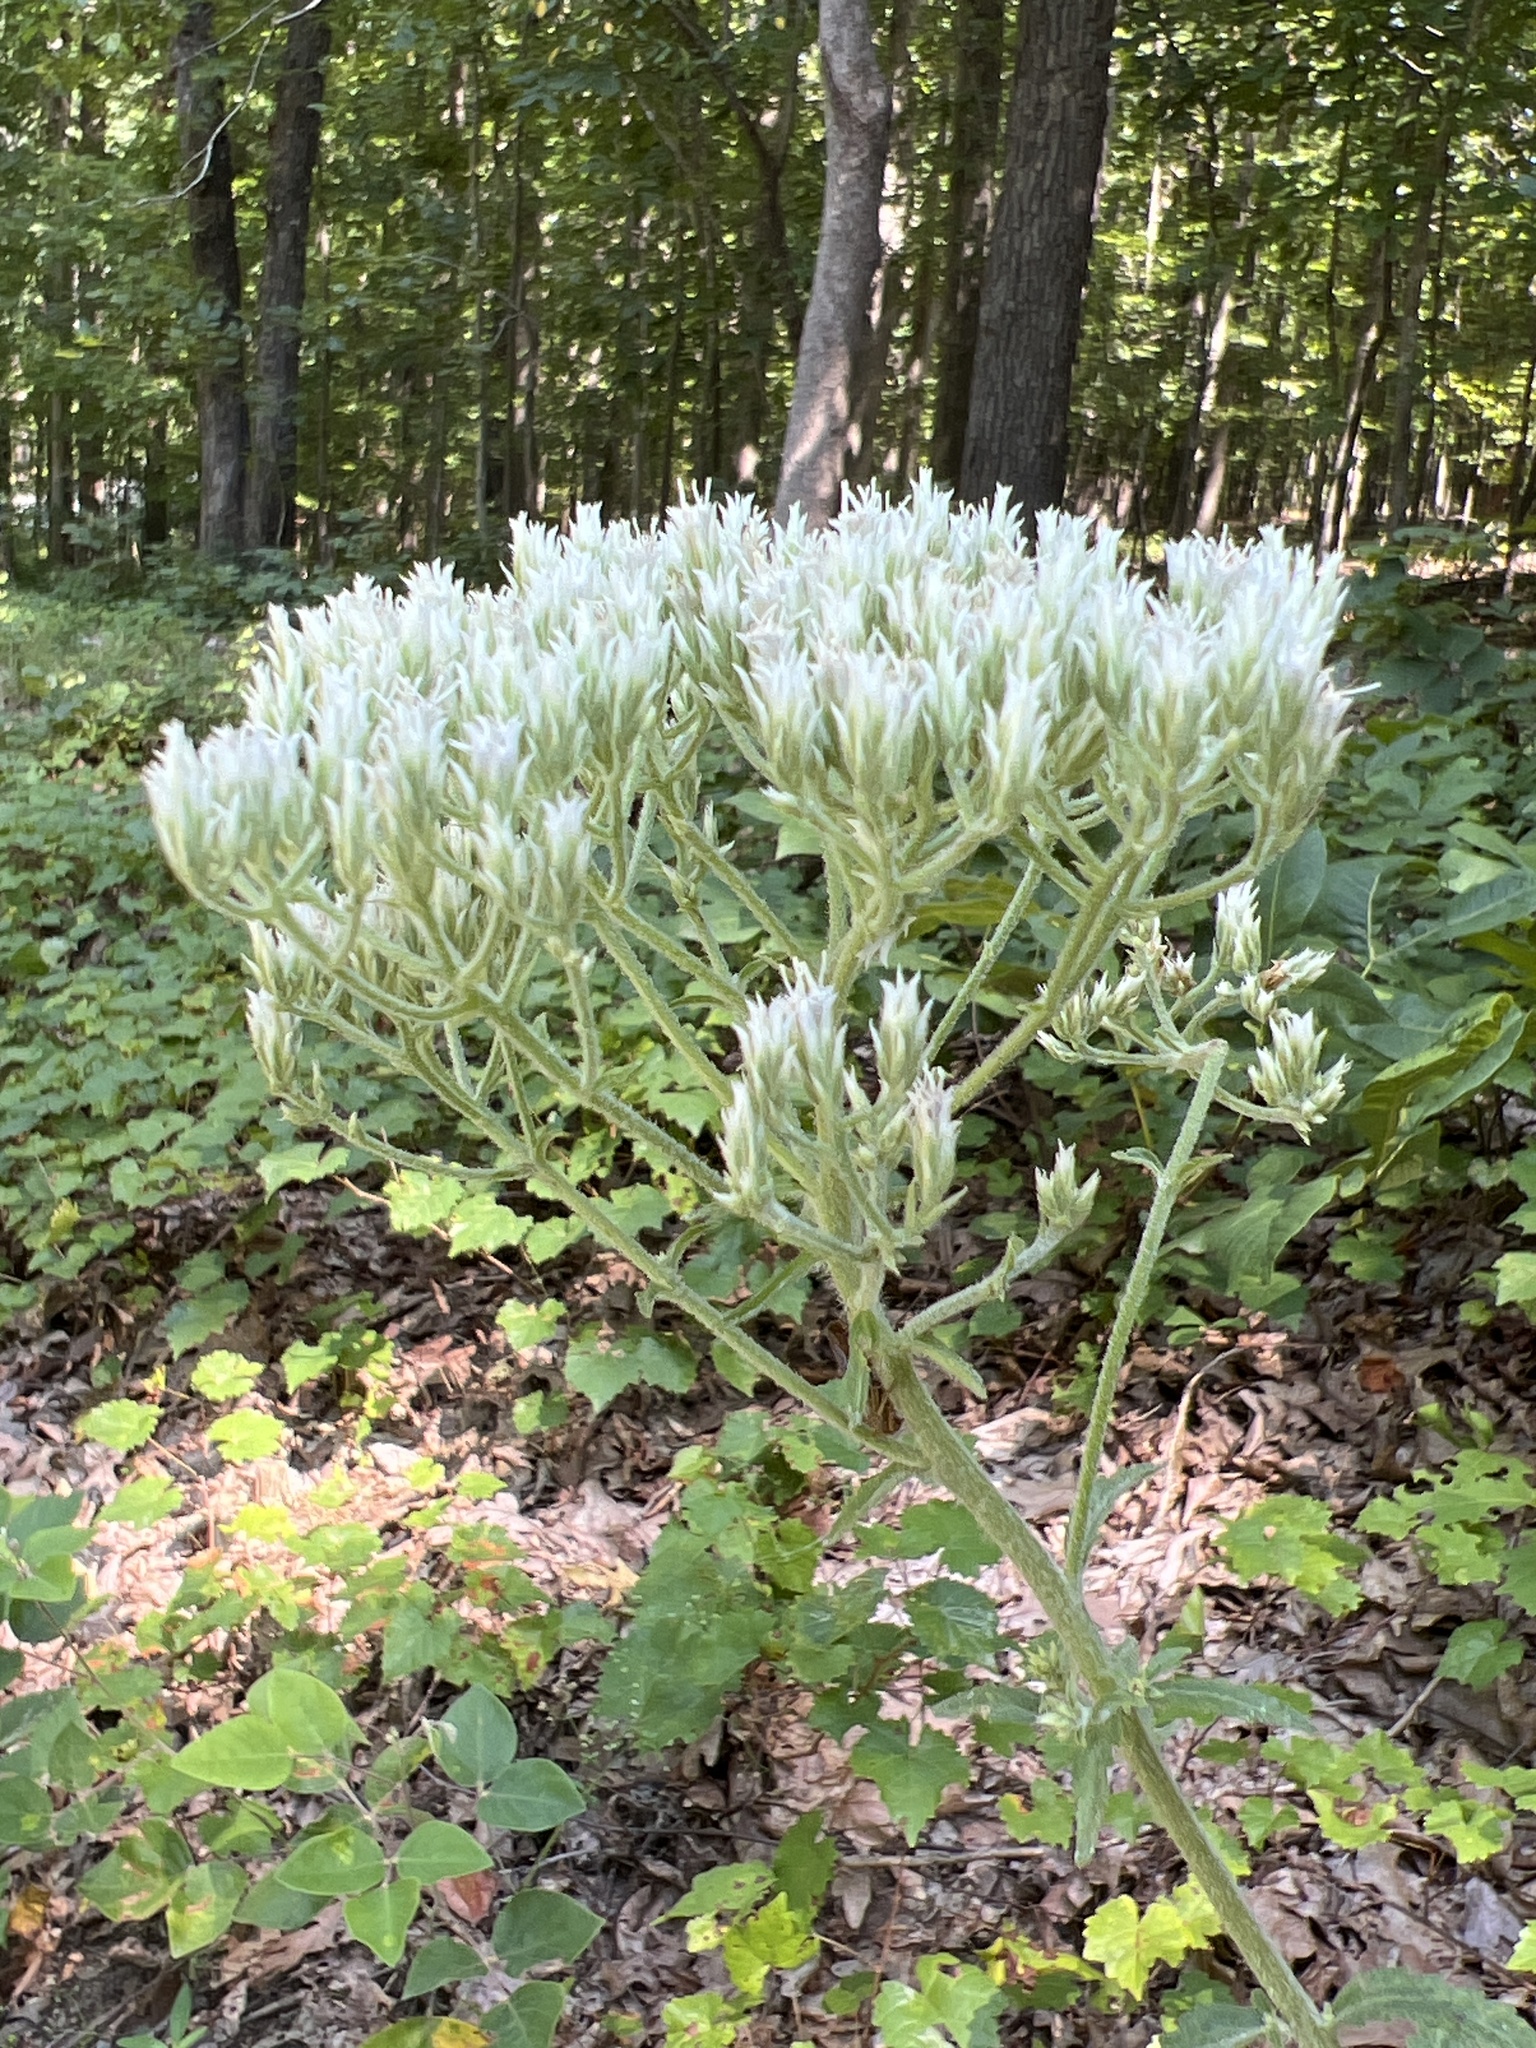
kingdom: Plantae
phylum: Tracheophyta
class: Magnoliopsida
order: Asterales
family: Asteraceae
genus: Eupatorium
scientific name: Eupatorium album
